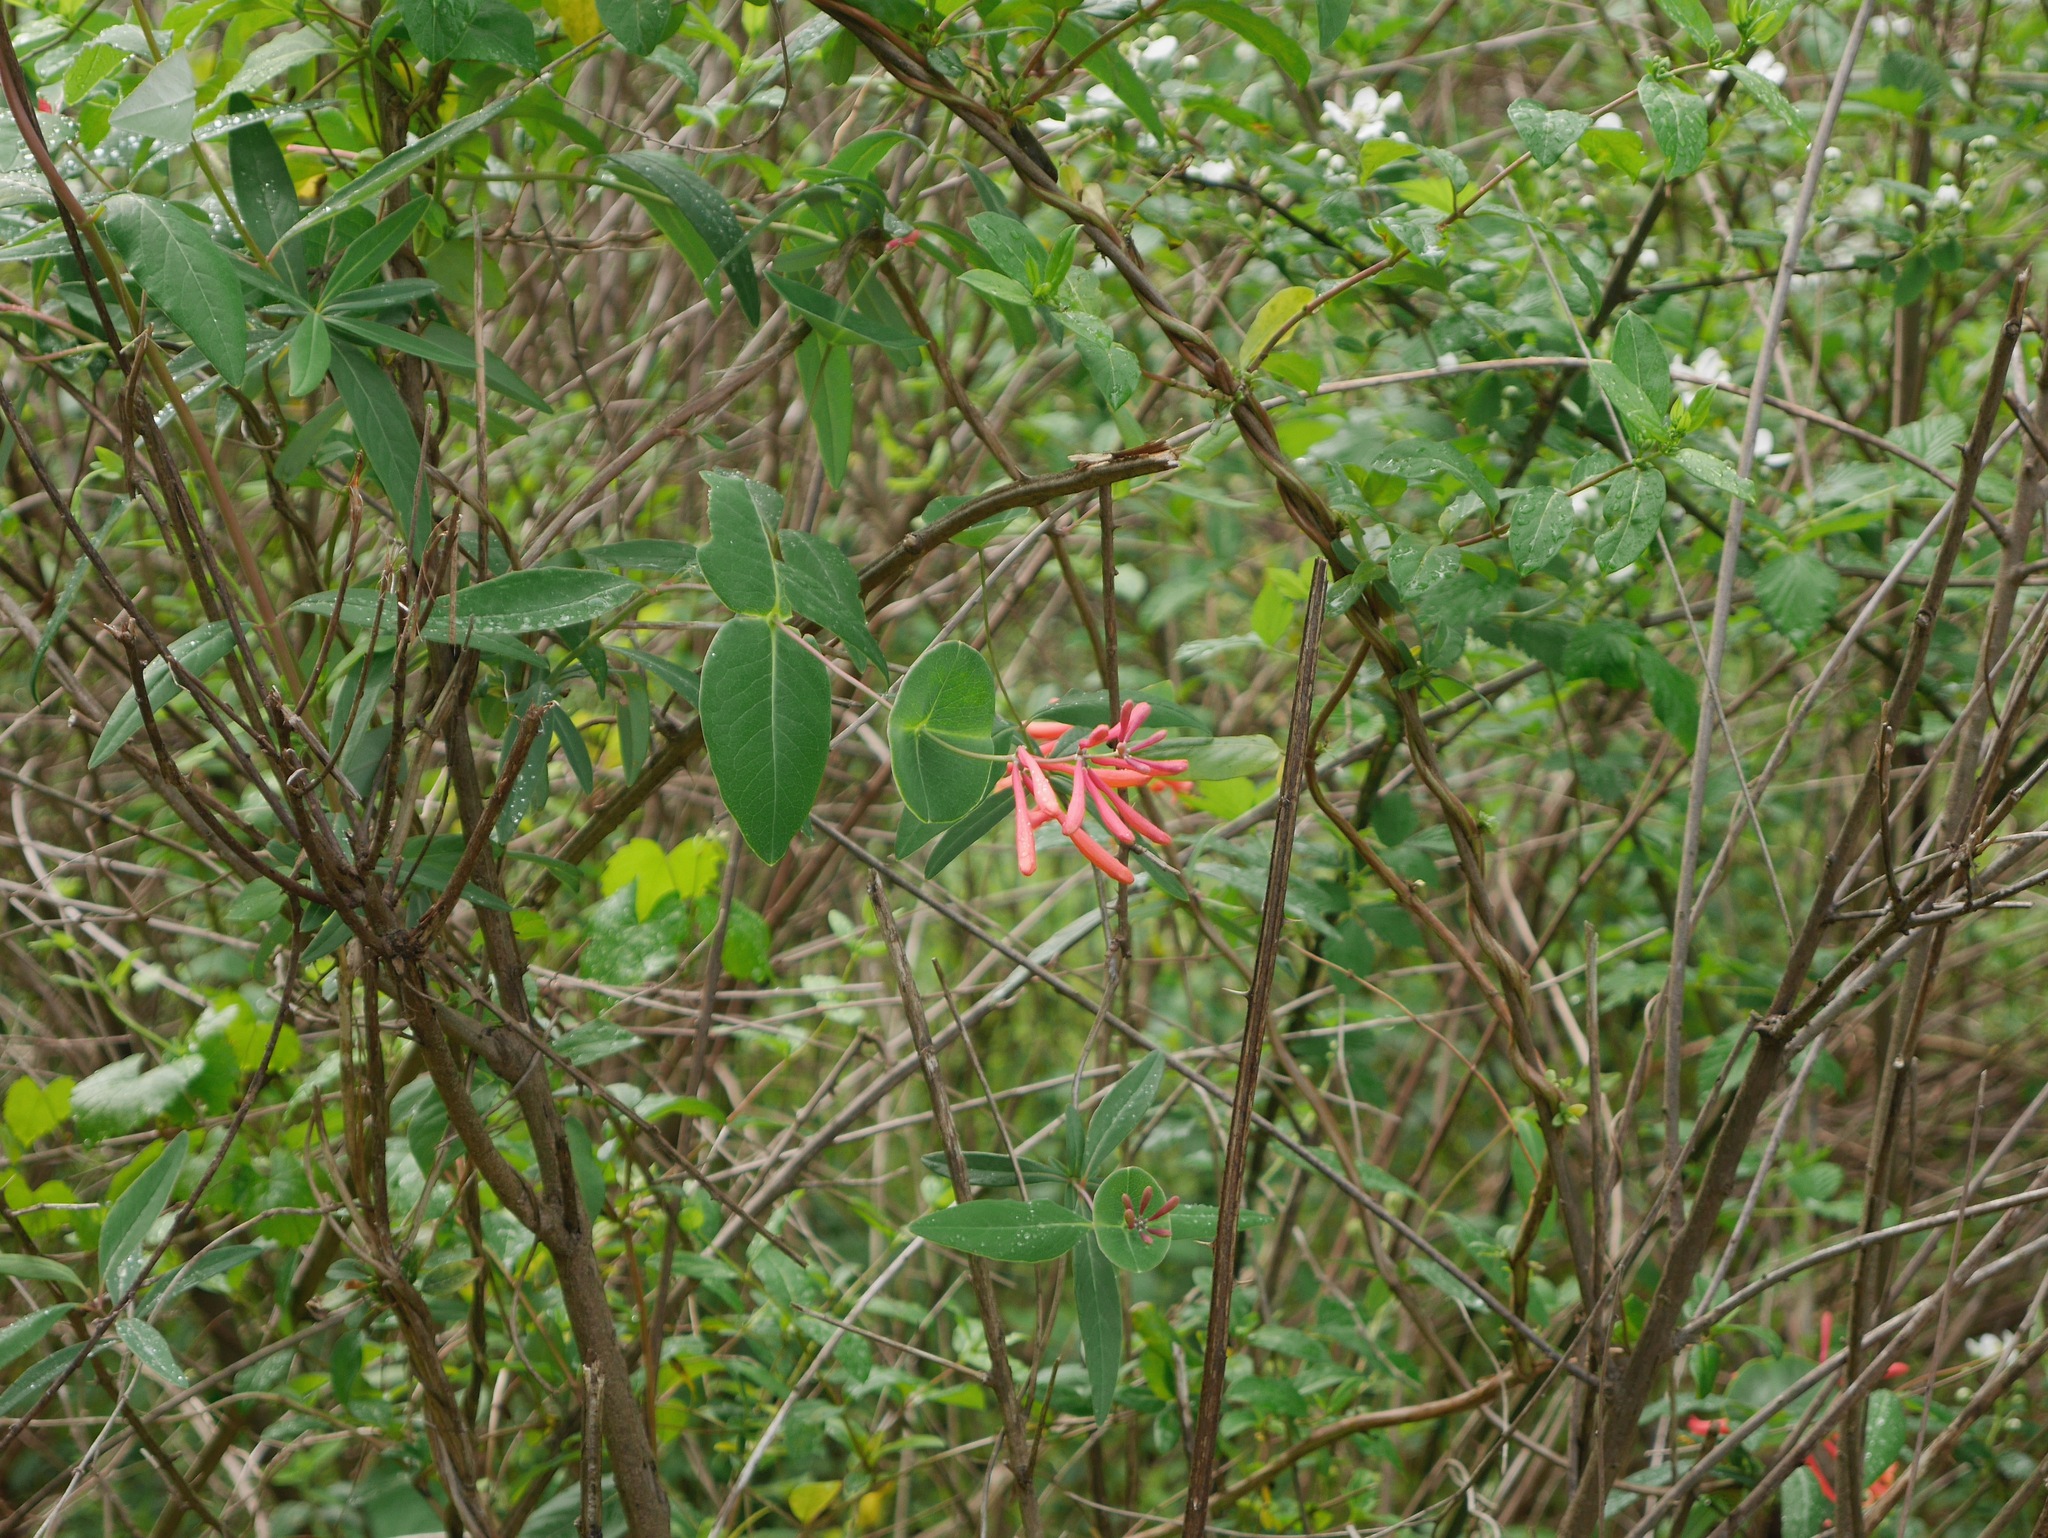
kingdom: Plantae
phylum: Tracheophyta
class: Magnoliopsida
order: Dipsacales
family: Caprifoliaceae
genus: Lonicera
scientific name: Lonicera sempervirens
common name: Coral honeysuckle
